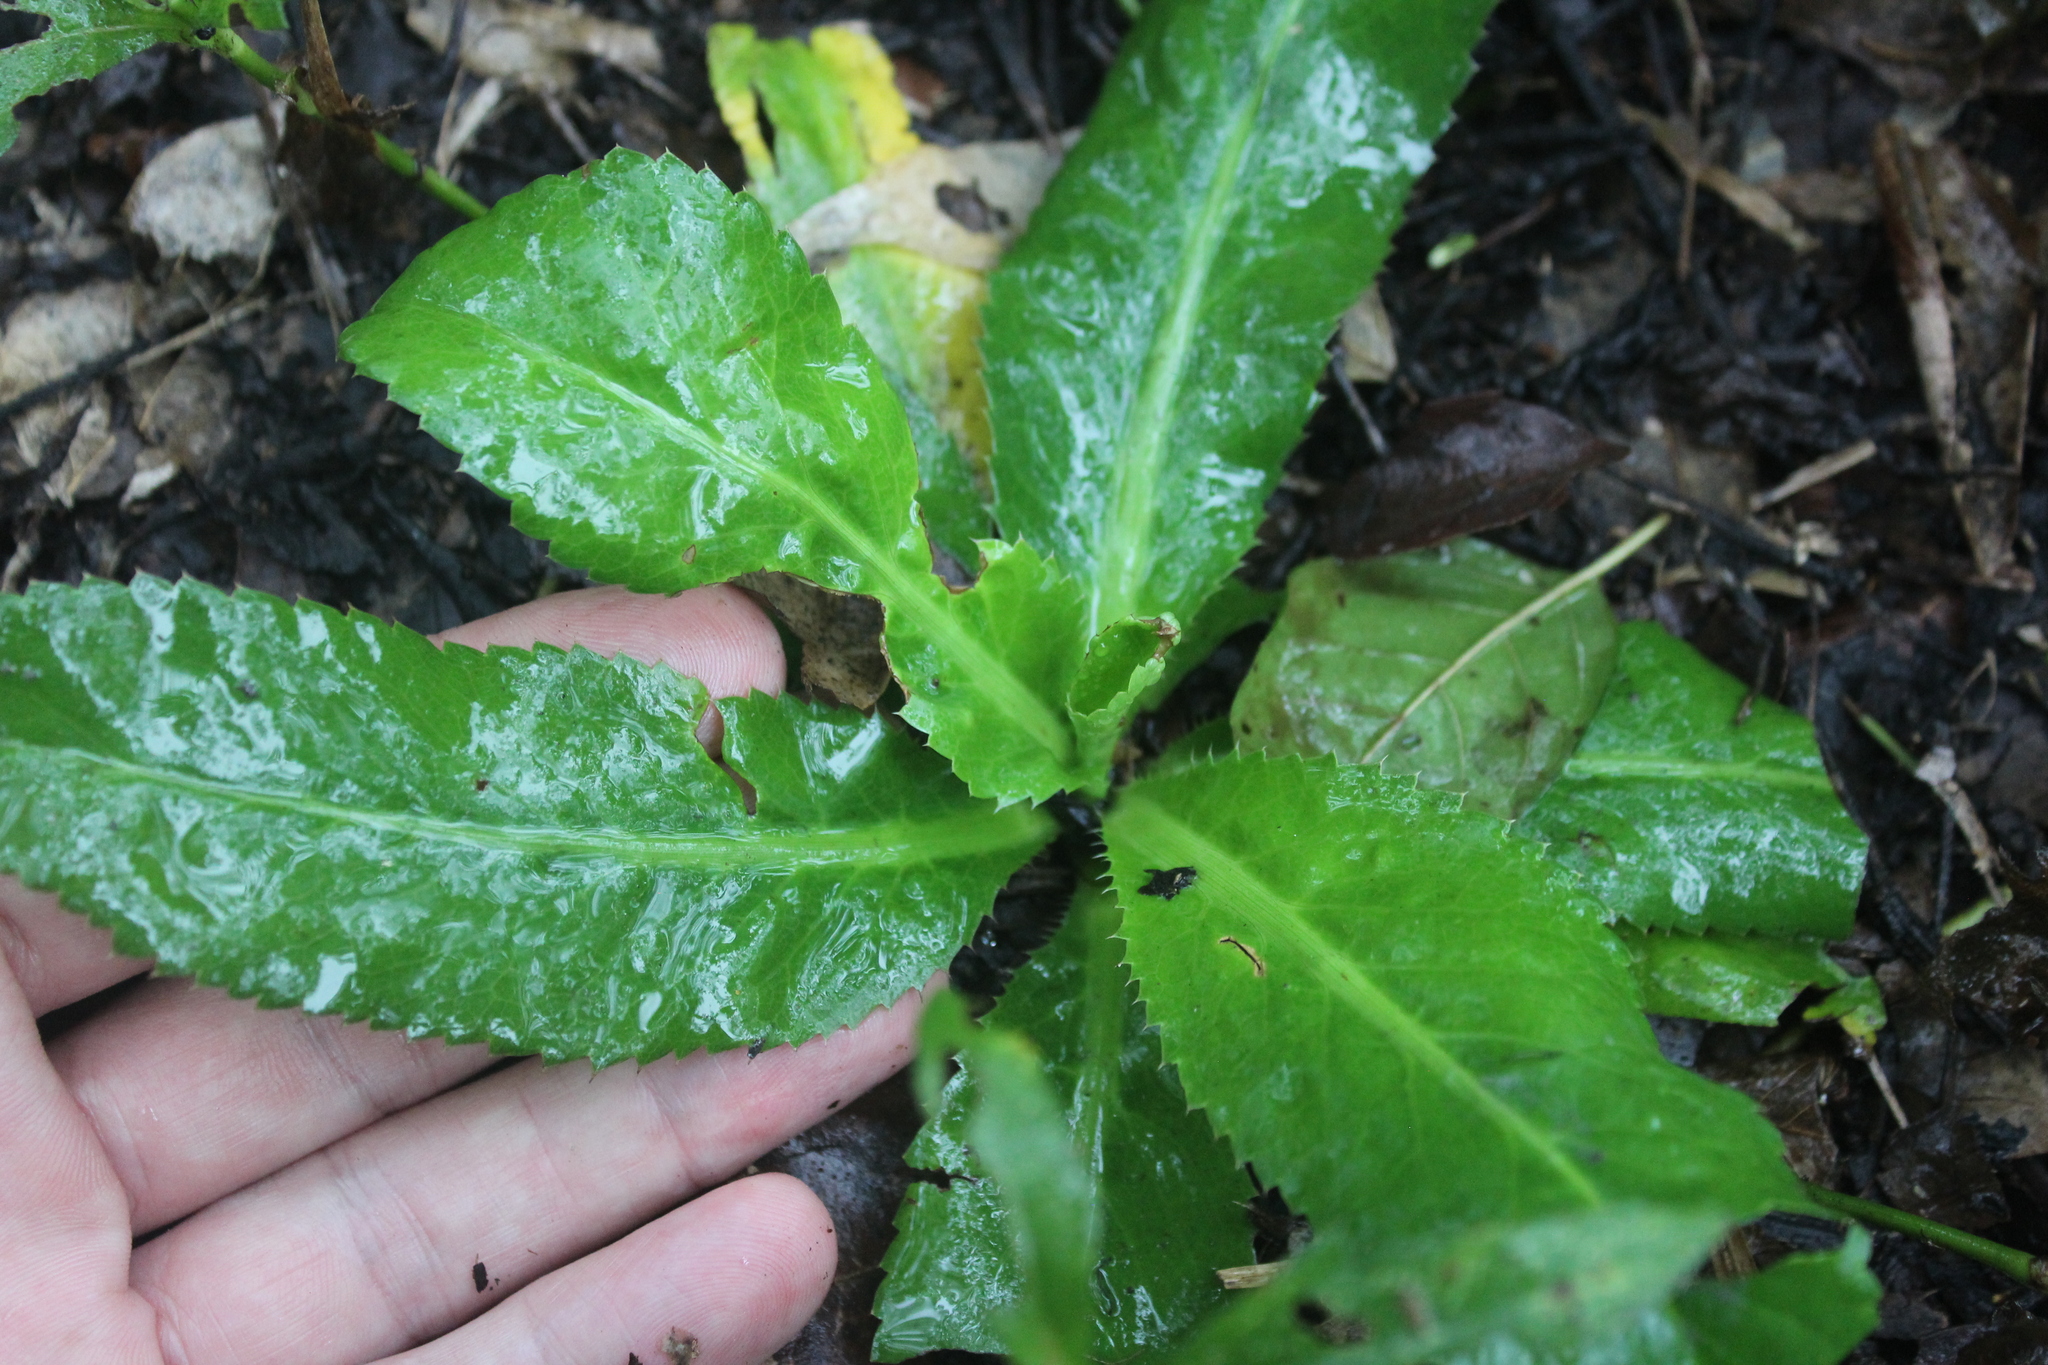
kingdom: Plantae
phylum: Tracheophyta
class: Magnoliopsida
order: Apiales
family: Apiaceae
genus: Eryngium
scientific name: Eryngium foetidum
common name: Fitweed
